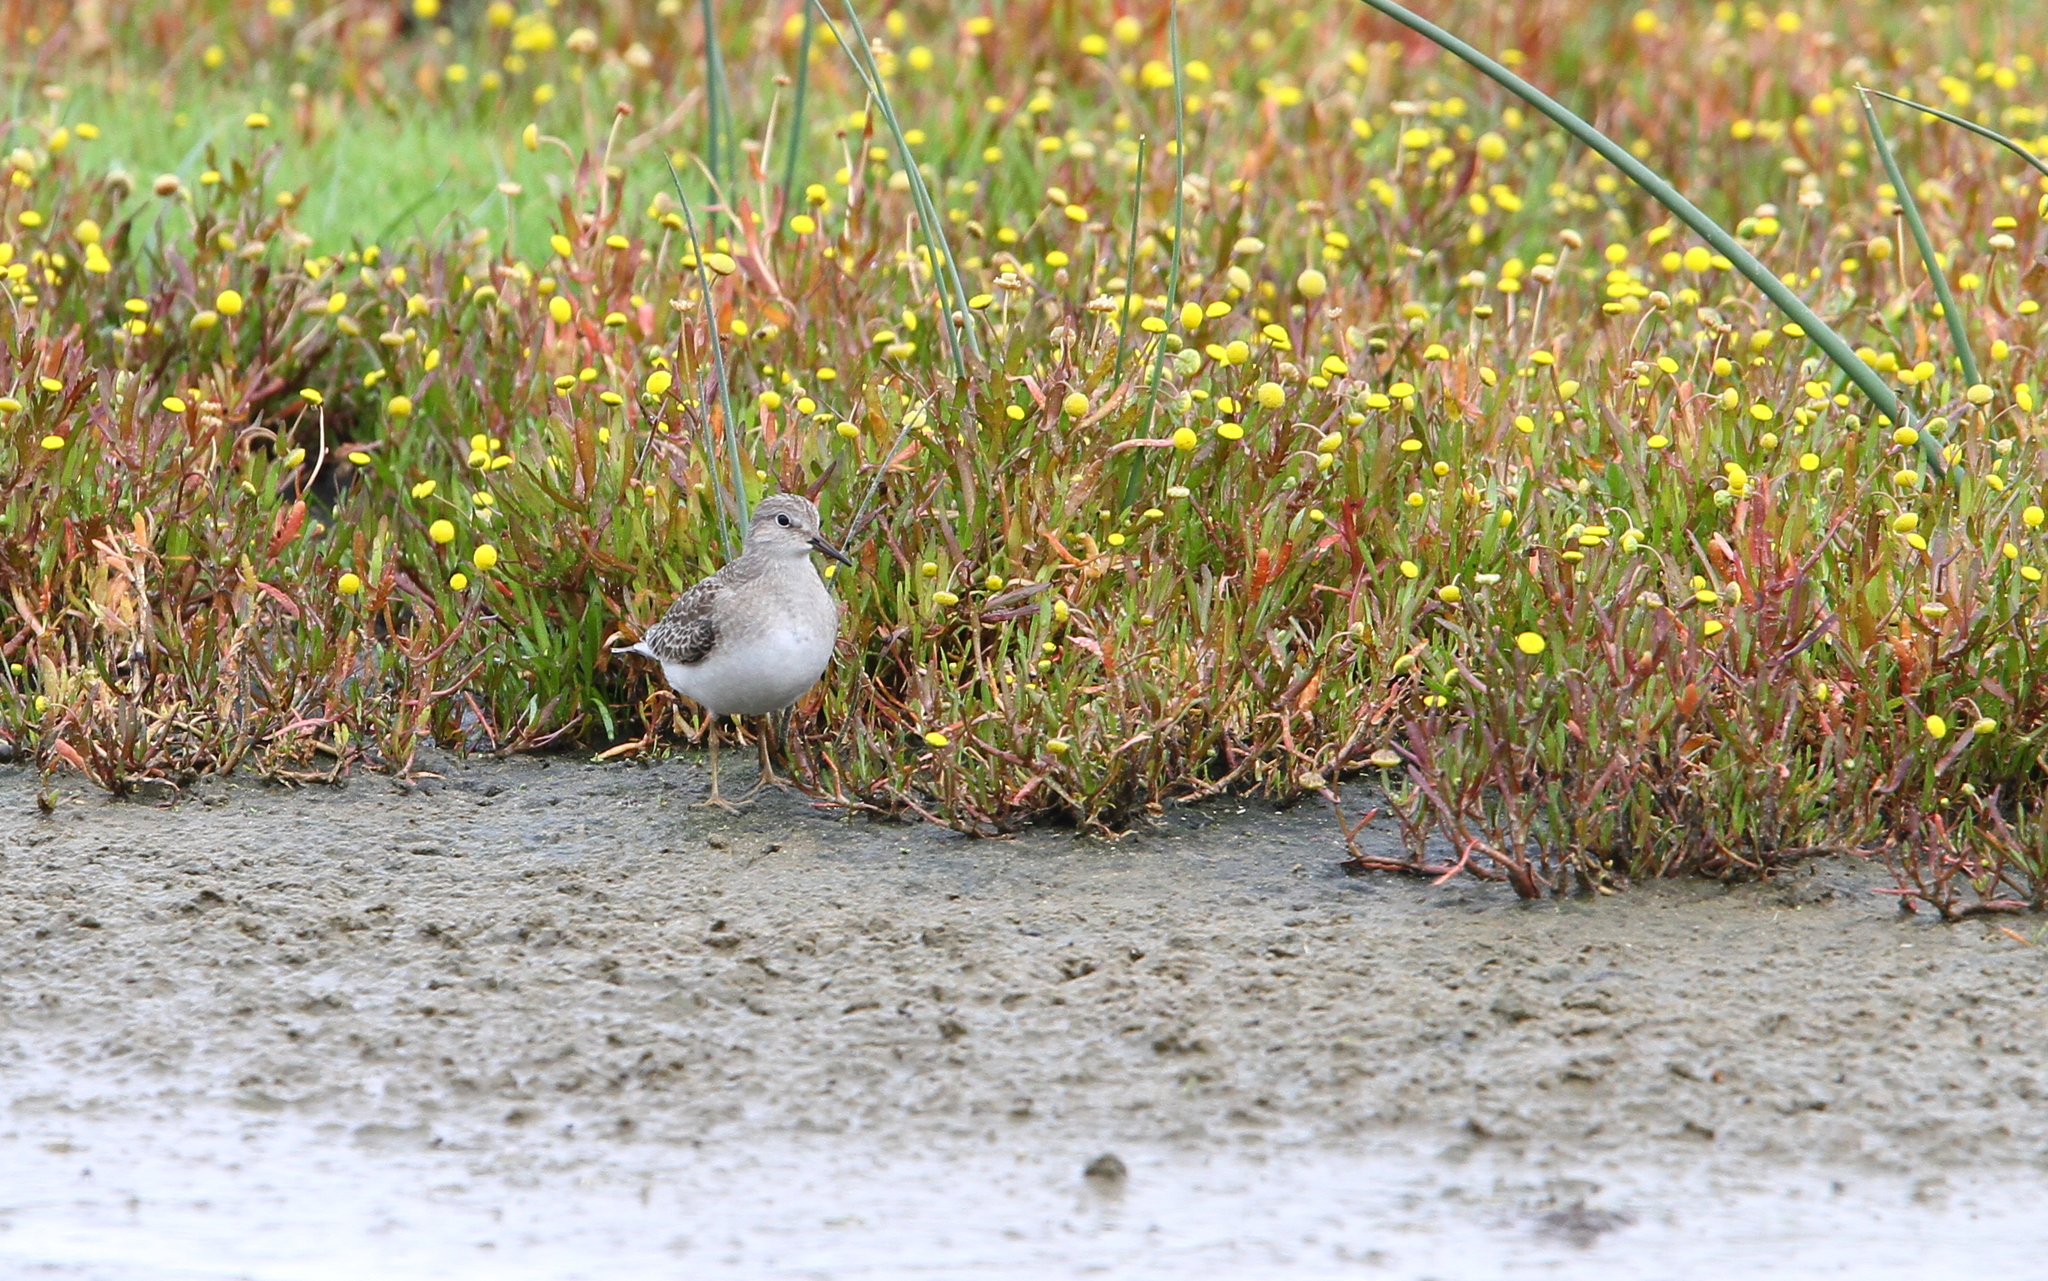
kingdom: Animalia
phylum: Chordata
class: Aves
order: Charadriiformes
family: Scolopacidae
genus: Calidris
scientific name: Calidris temminckii
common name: Temminck's stint
